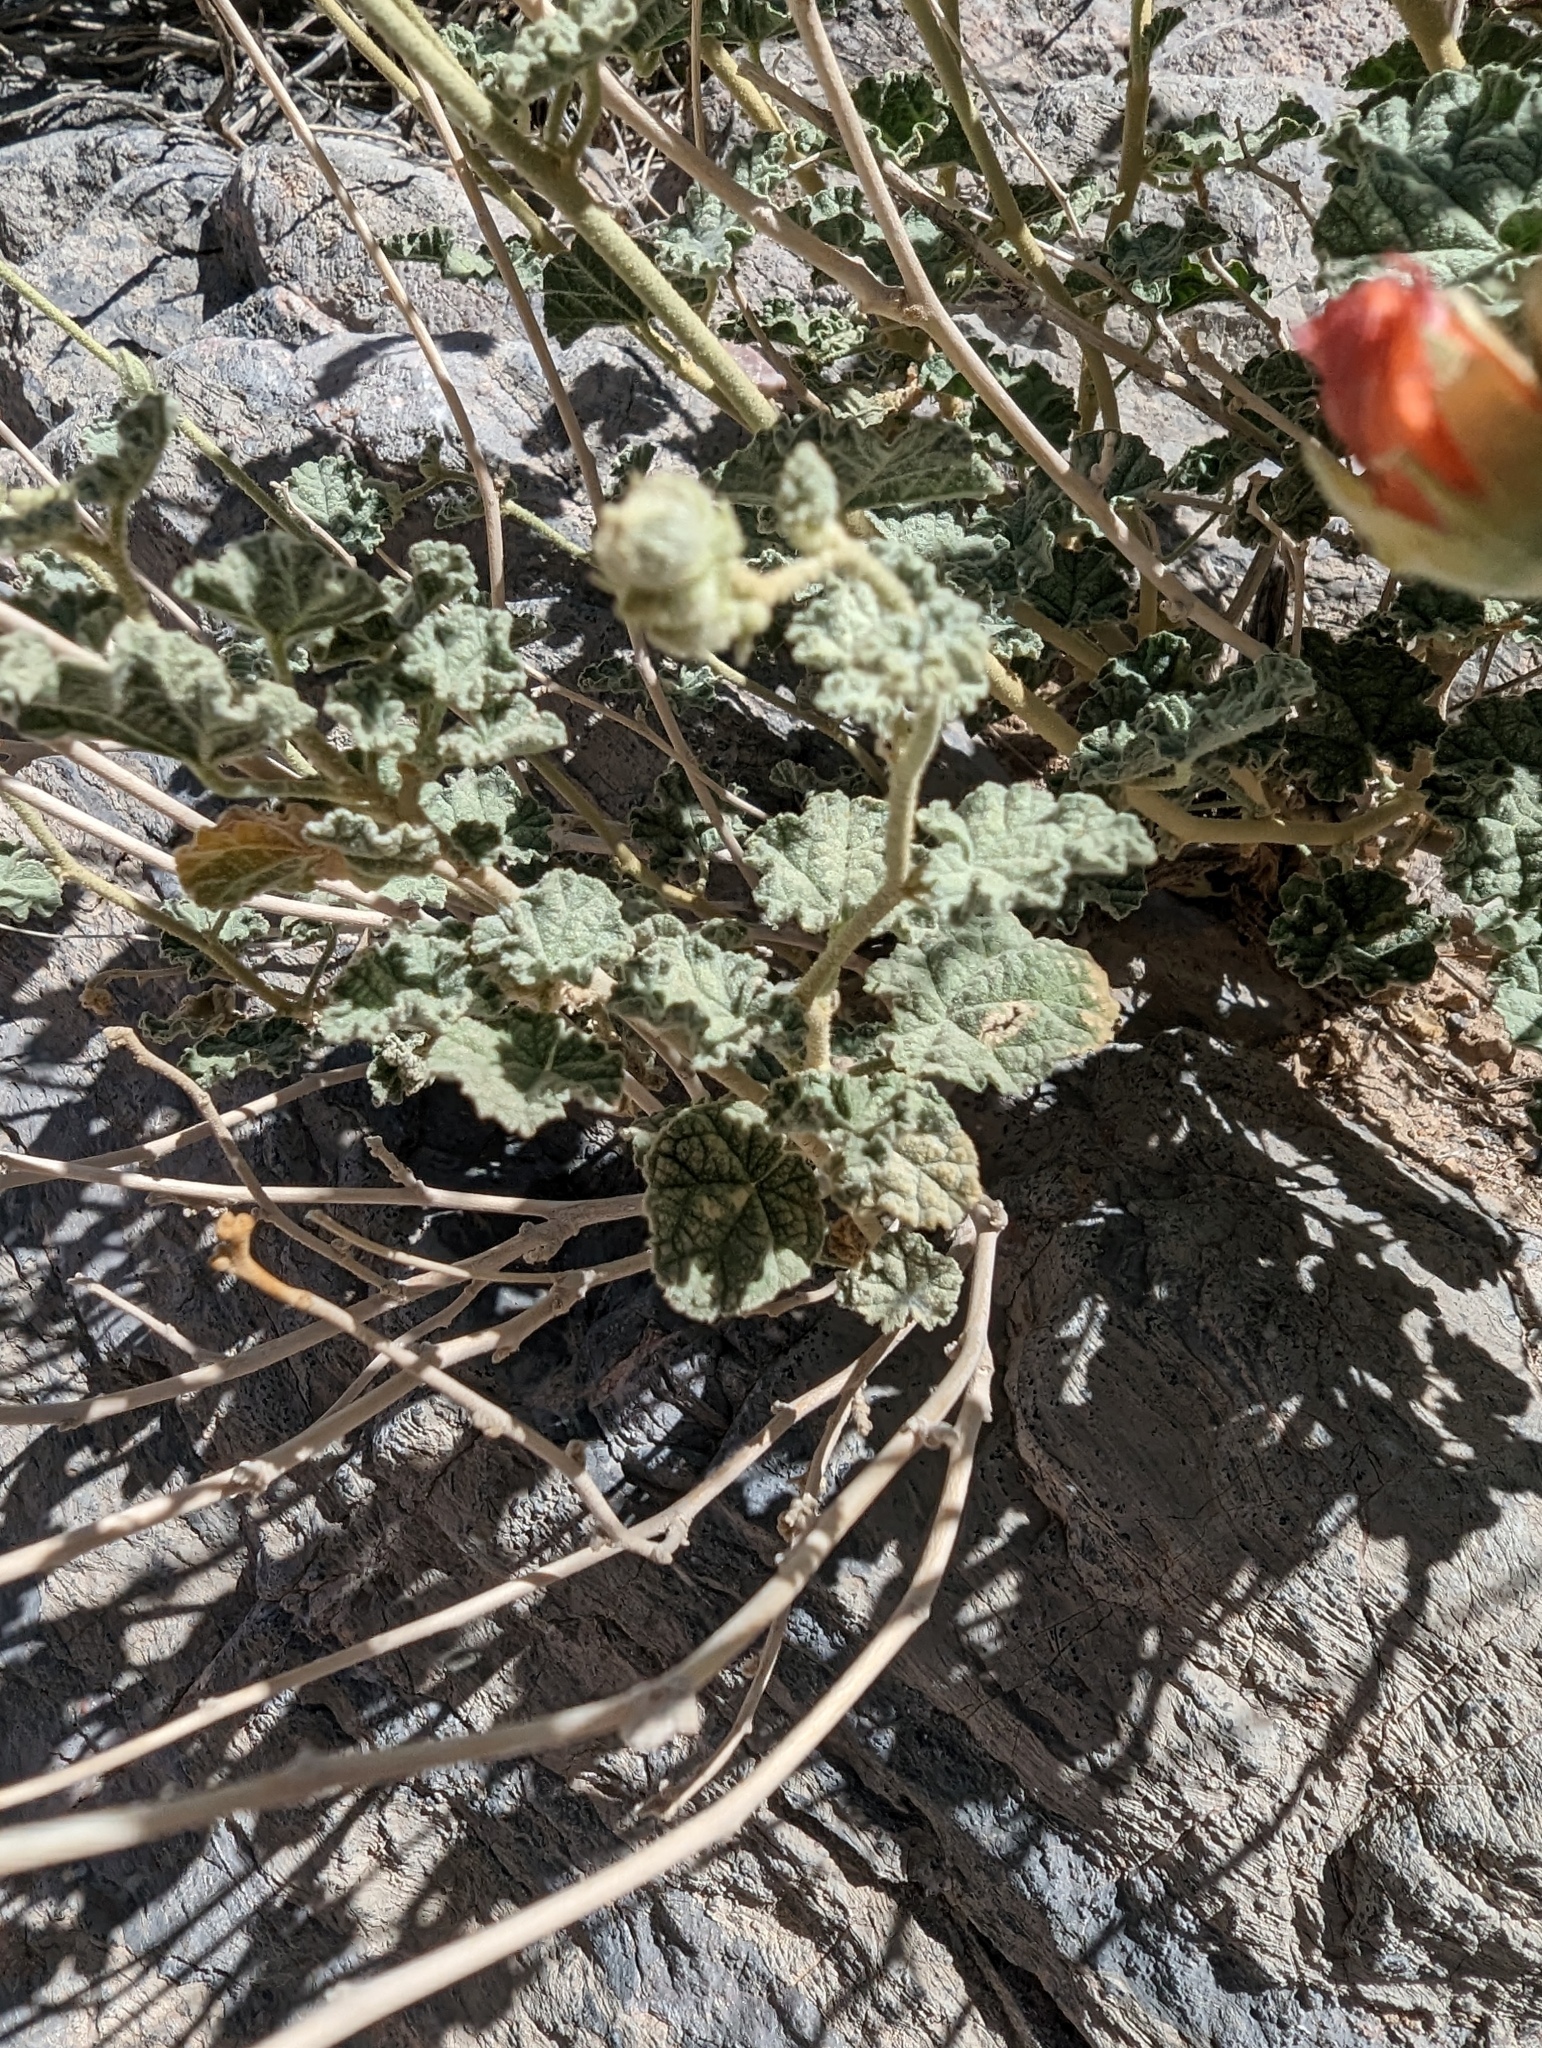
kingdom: Plantae
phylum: Tracheophyta
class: Magnoliopsida
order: Malvales
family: Malvaceae
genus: Sphaeralcea
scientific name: Sphaeralcea ambigua
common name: Apricot globe-mallow
